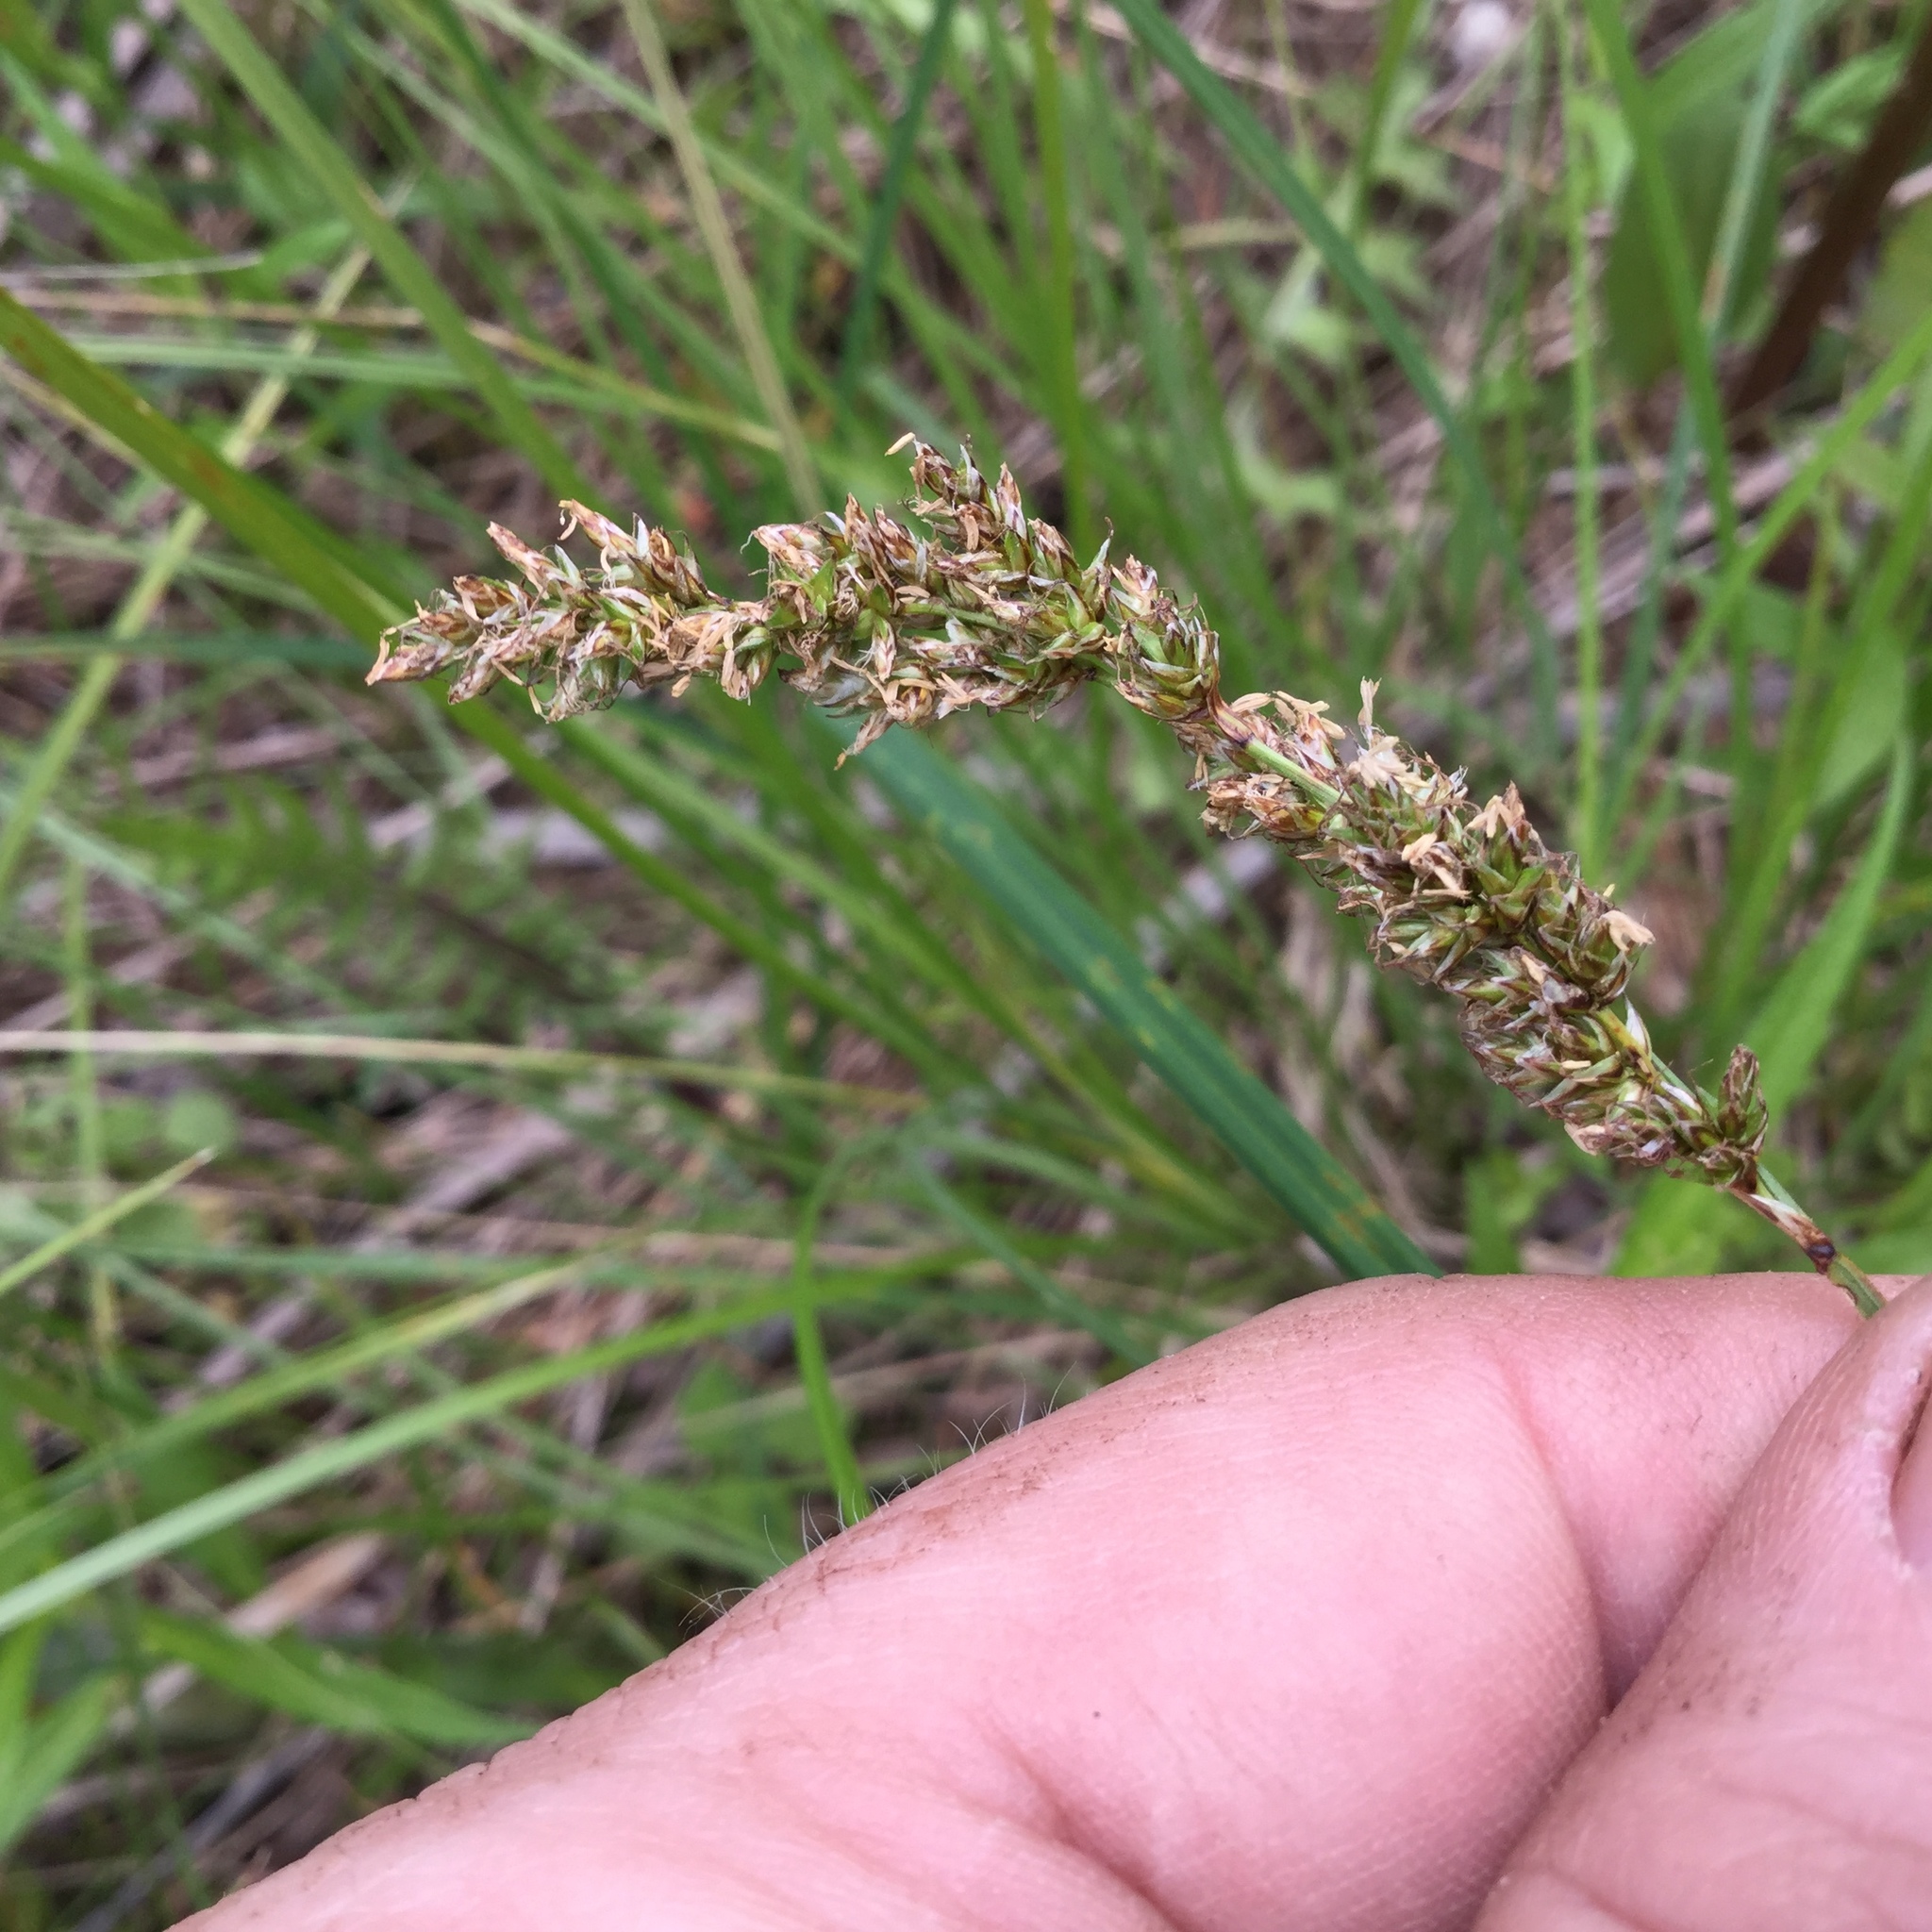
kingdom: Plantae
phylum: Tracheophyta
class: Liliopsida
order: Poales
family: Cyperaceae
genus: Carex
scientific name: Carex prairea
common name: Prairie sedge
